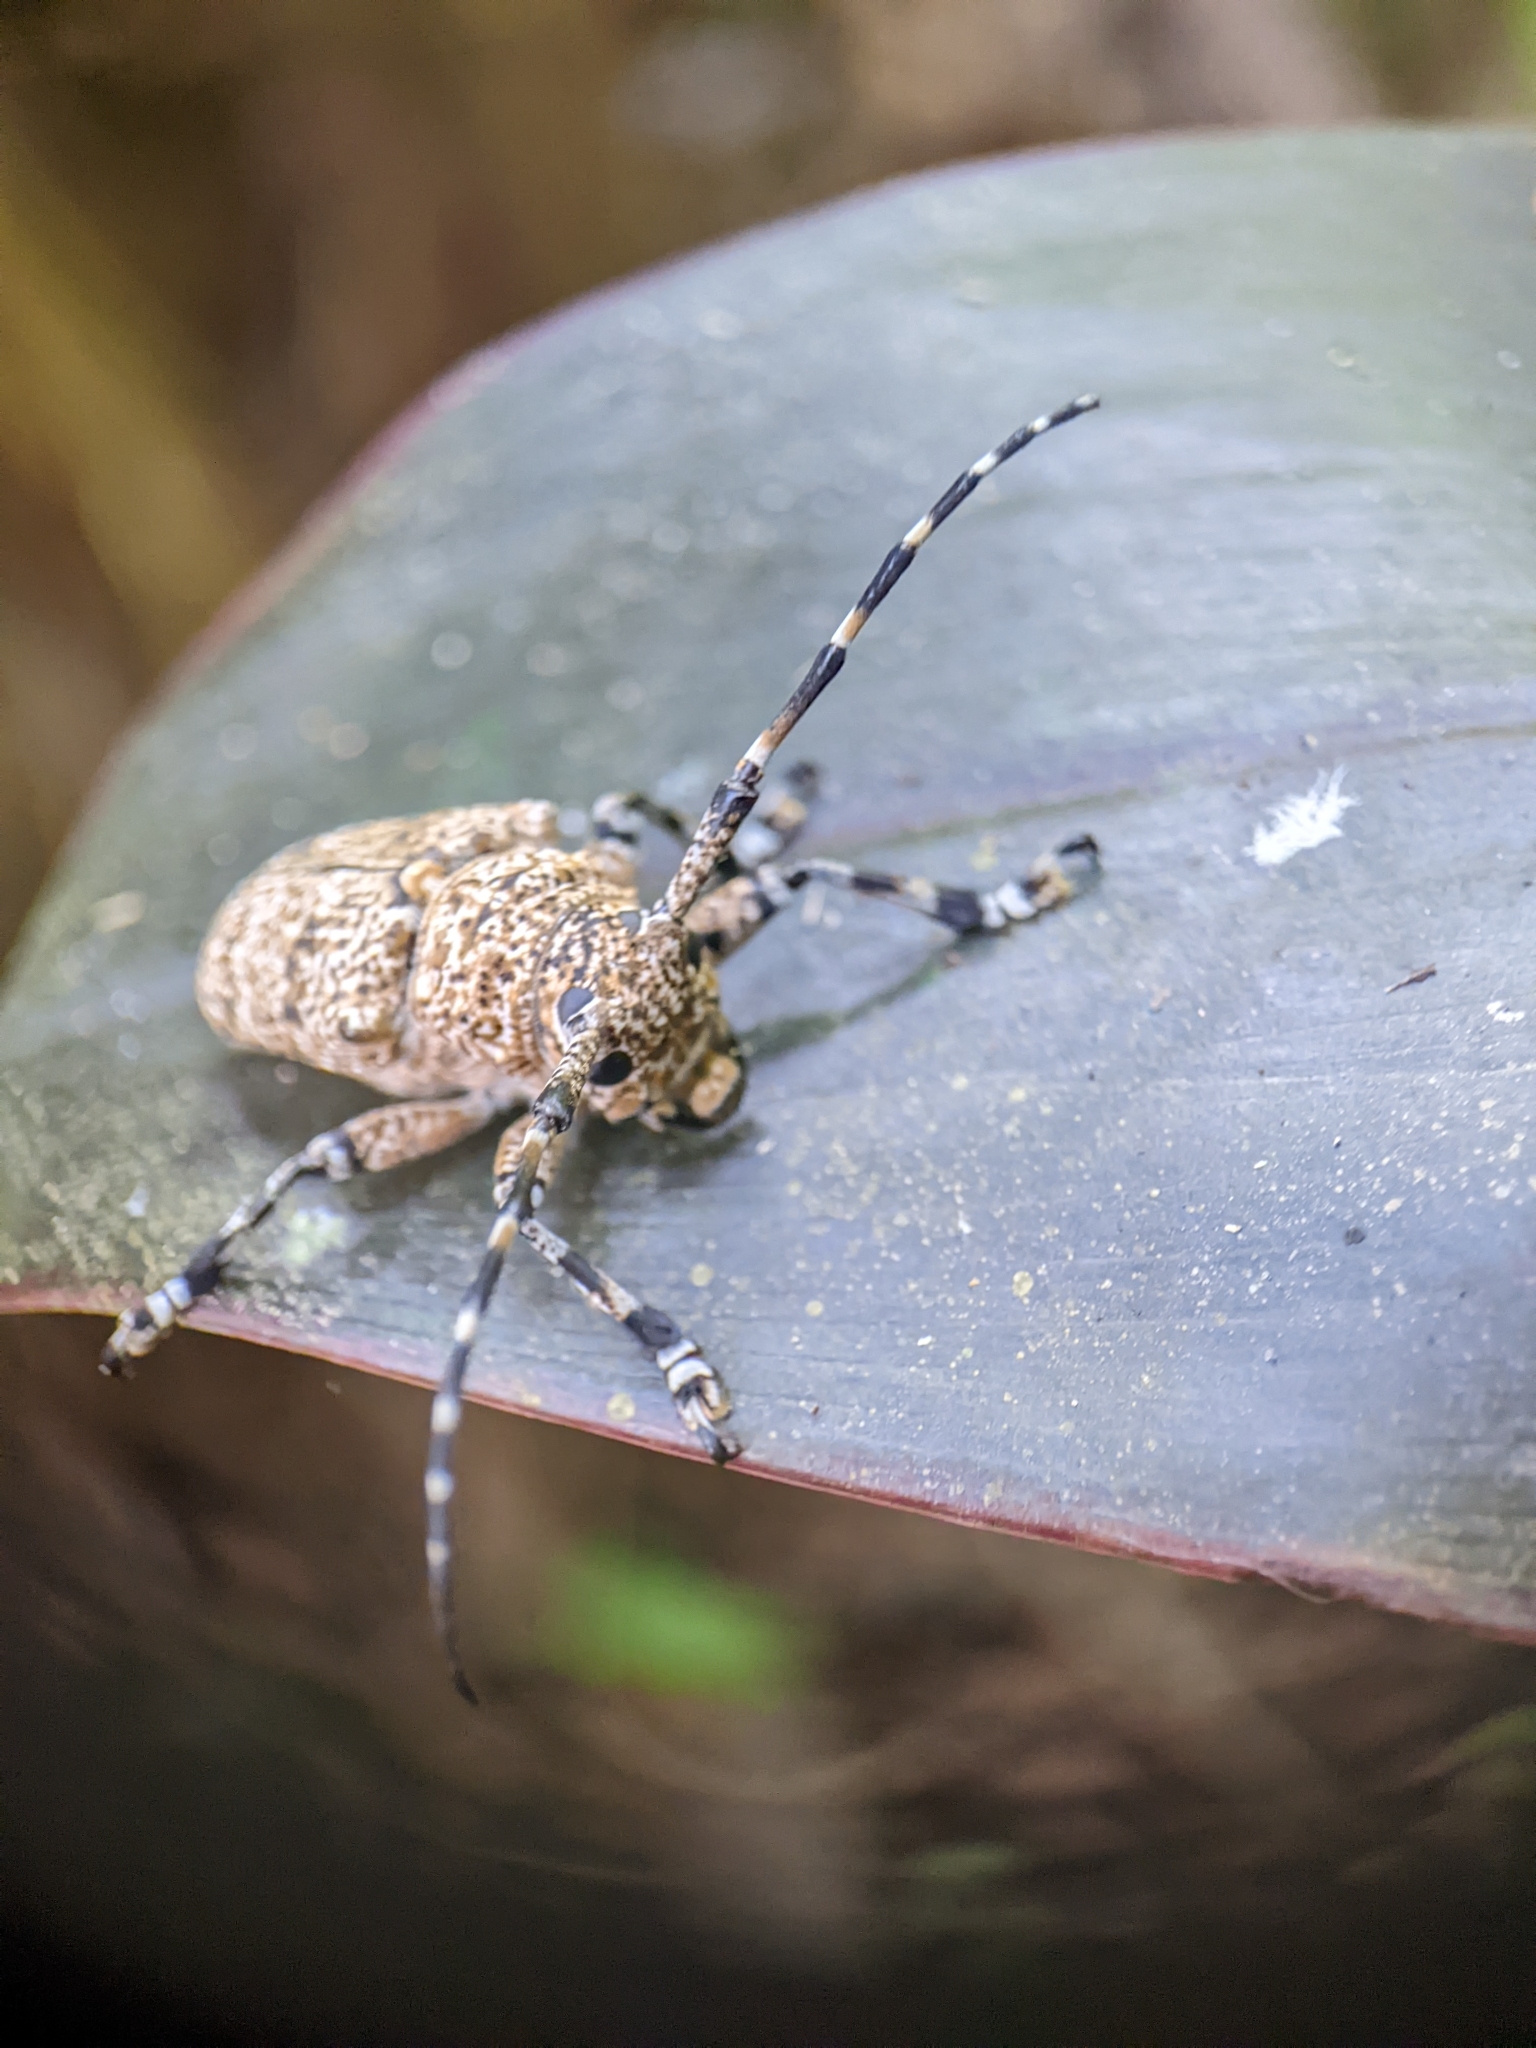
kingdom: Animalia
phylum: Arthropoda
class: Insecta
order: Coleoptera
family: Cerambycidae
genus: Coptops
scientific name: Coptops leucostictica
